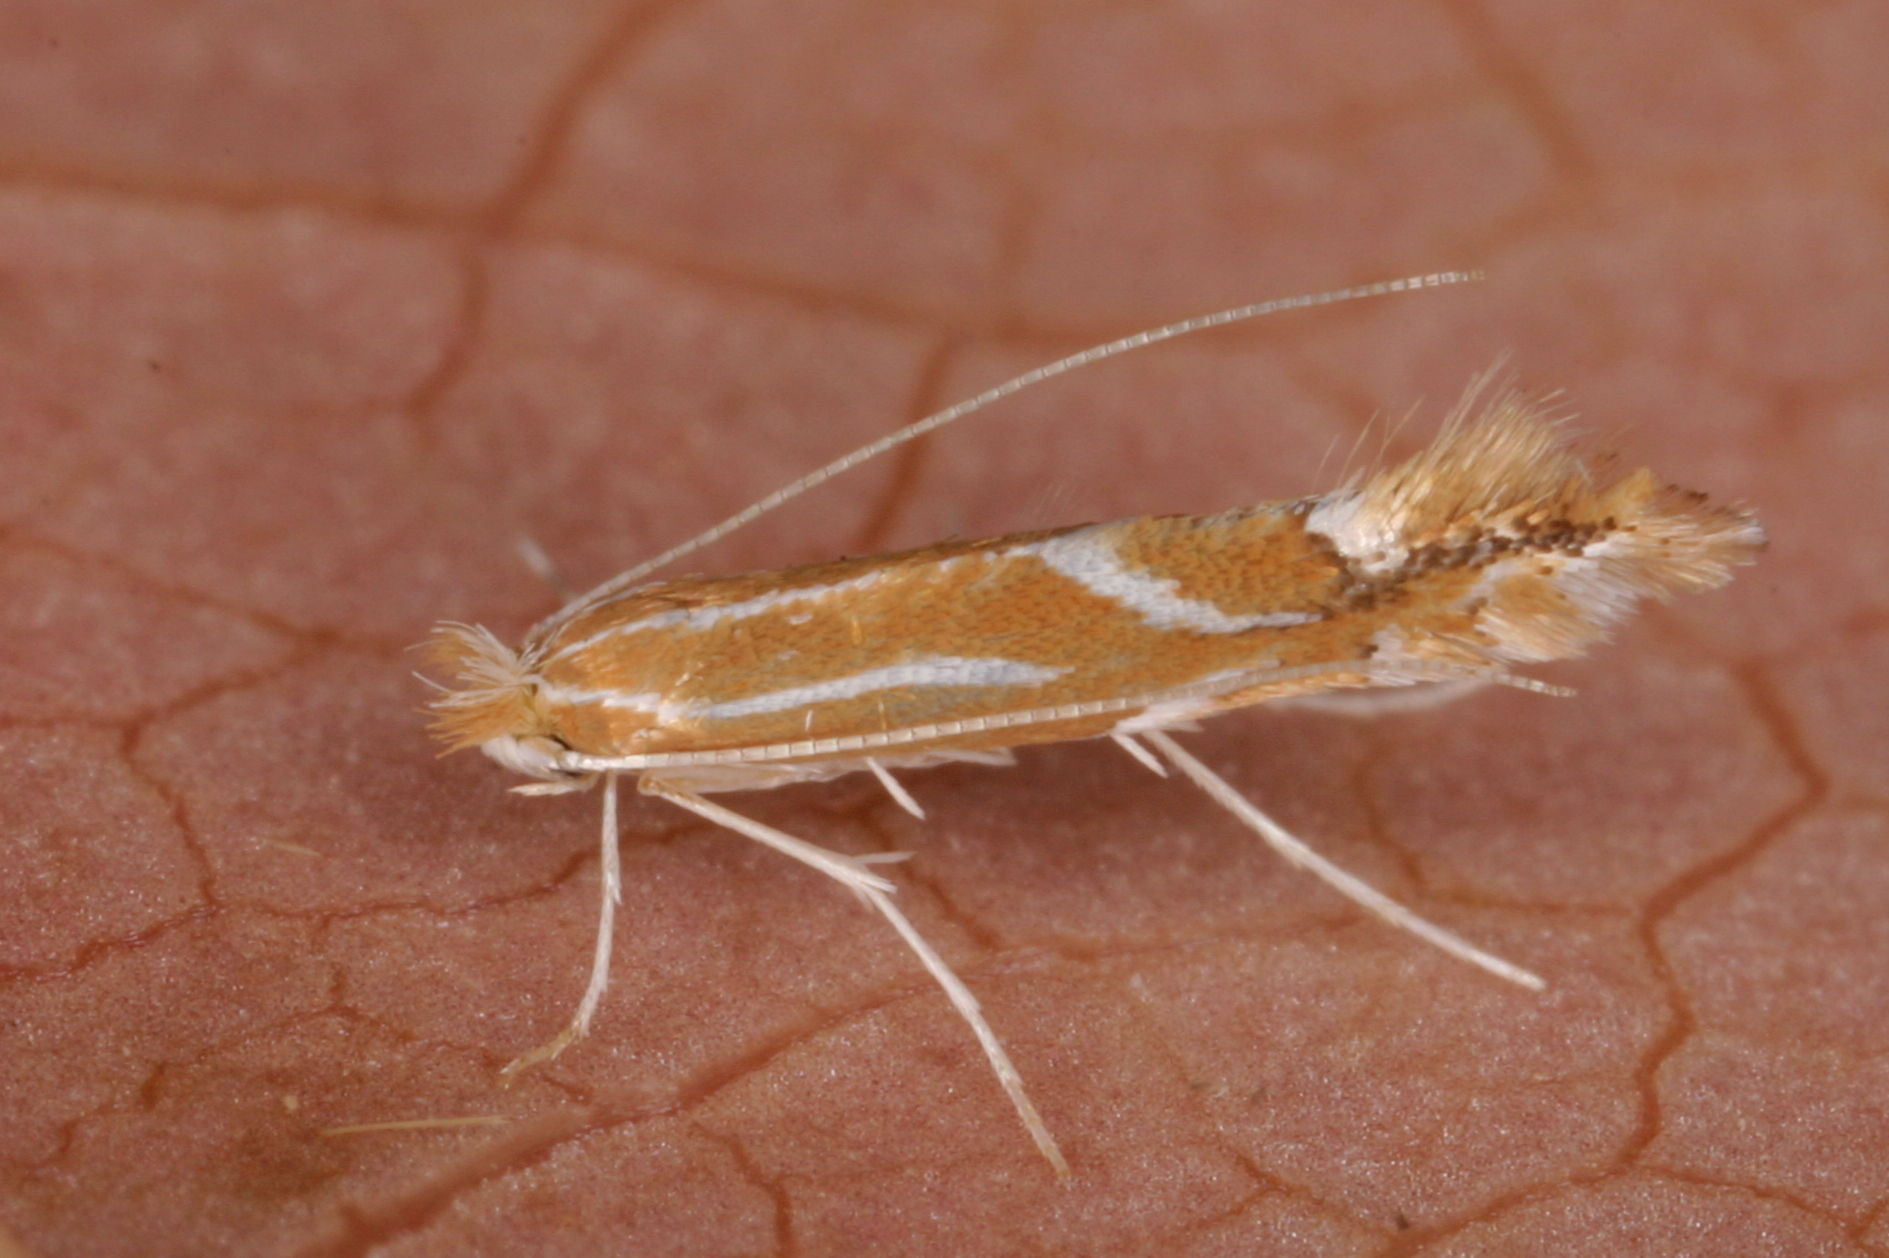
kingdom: Animalia
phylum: Arthropoda
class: Insecta
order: Lepidoptera
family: Gracillariidae
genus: Phyllonorycter
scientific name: Phyllonorycter leucographella
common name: Firethorn leaf-miner
